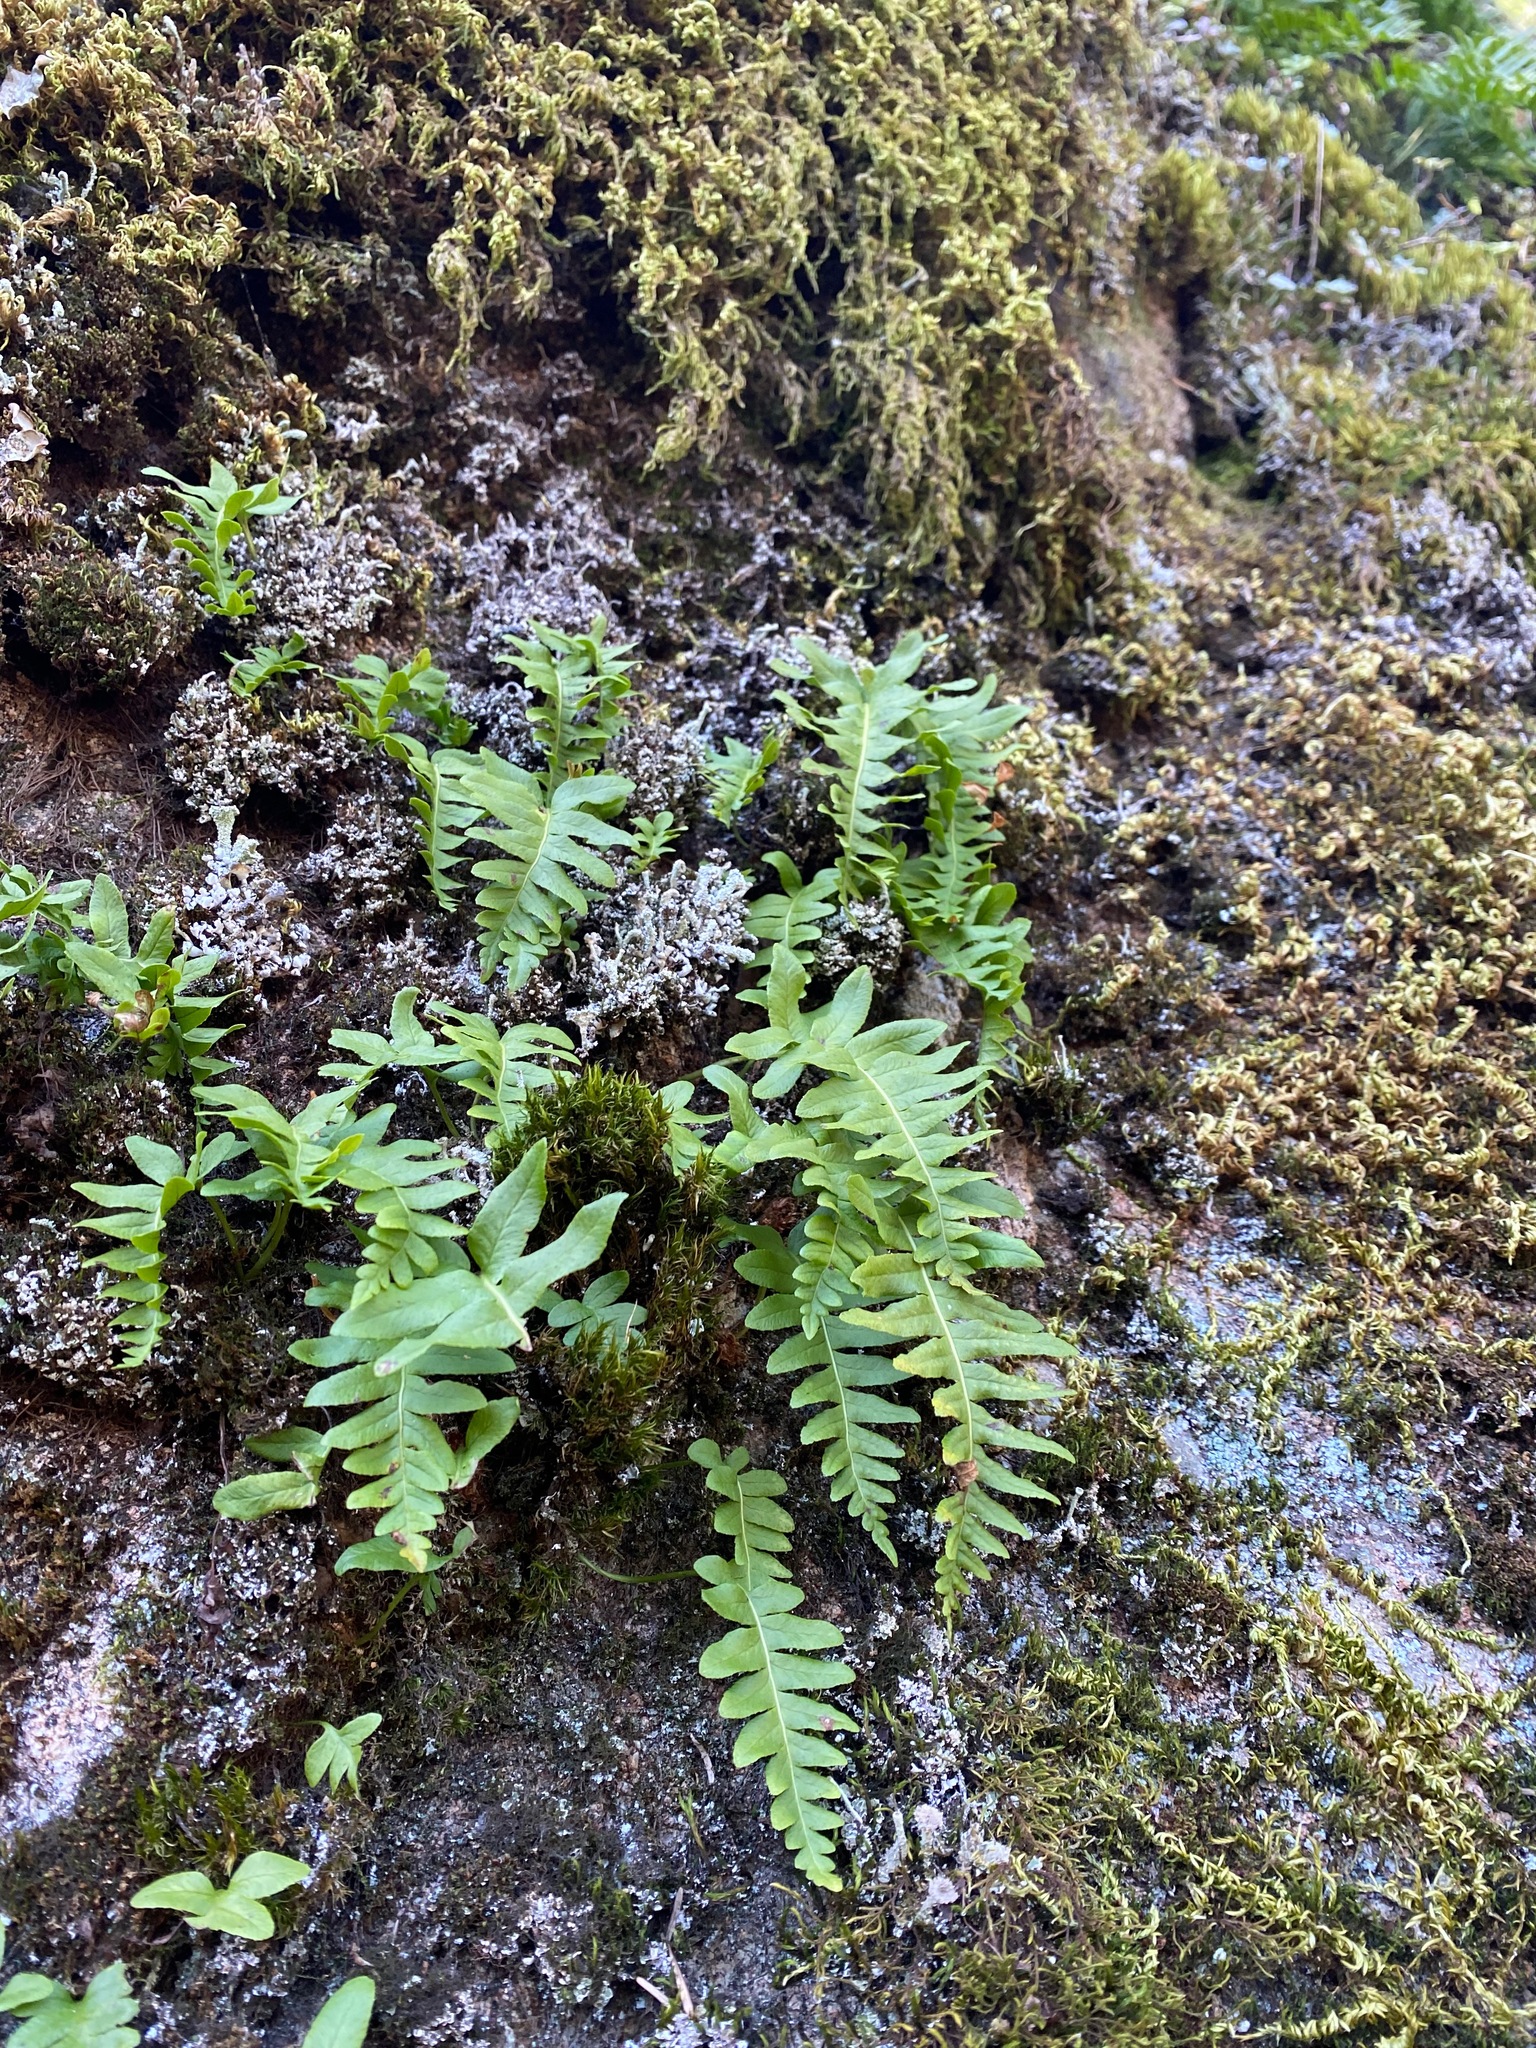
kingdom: Plantae
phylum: Tracheophyta
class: Polypodiopsida
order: Polypodiales
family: Polypodiaceae
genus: Polypodium
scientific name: Polypodium glycyrrhiza
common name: Licorice fern
